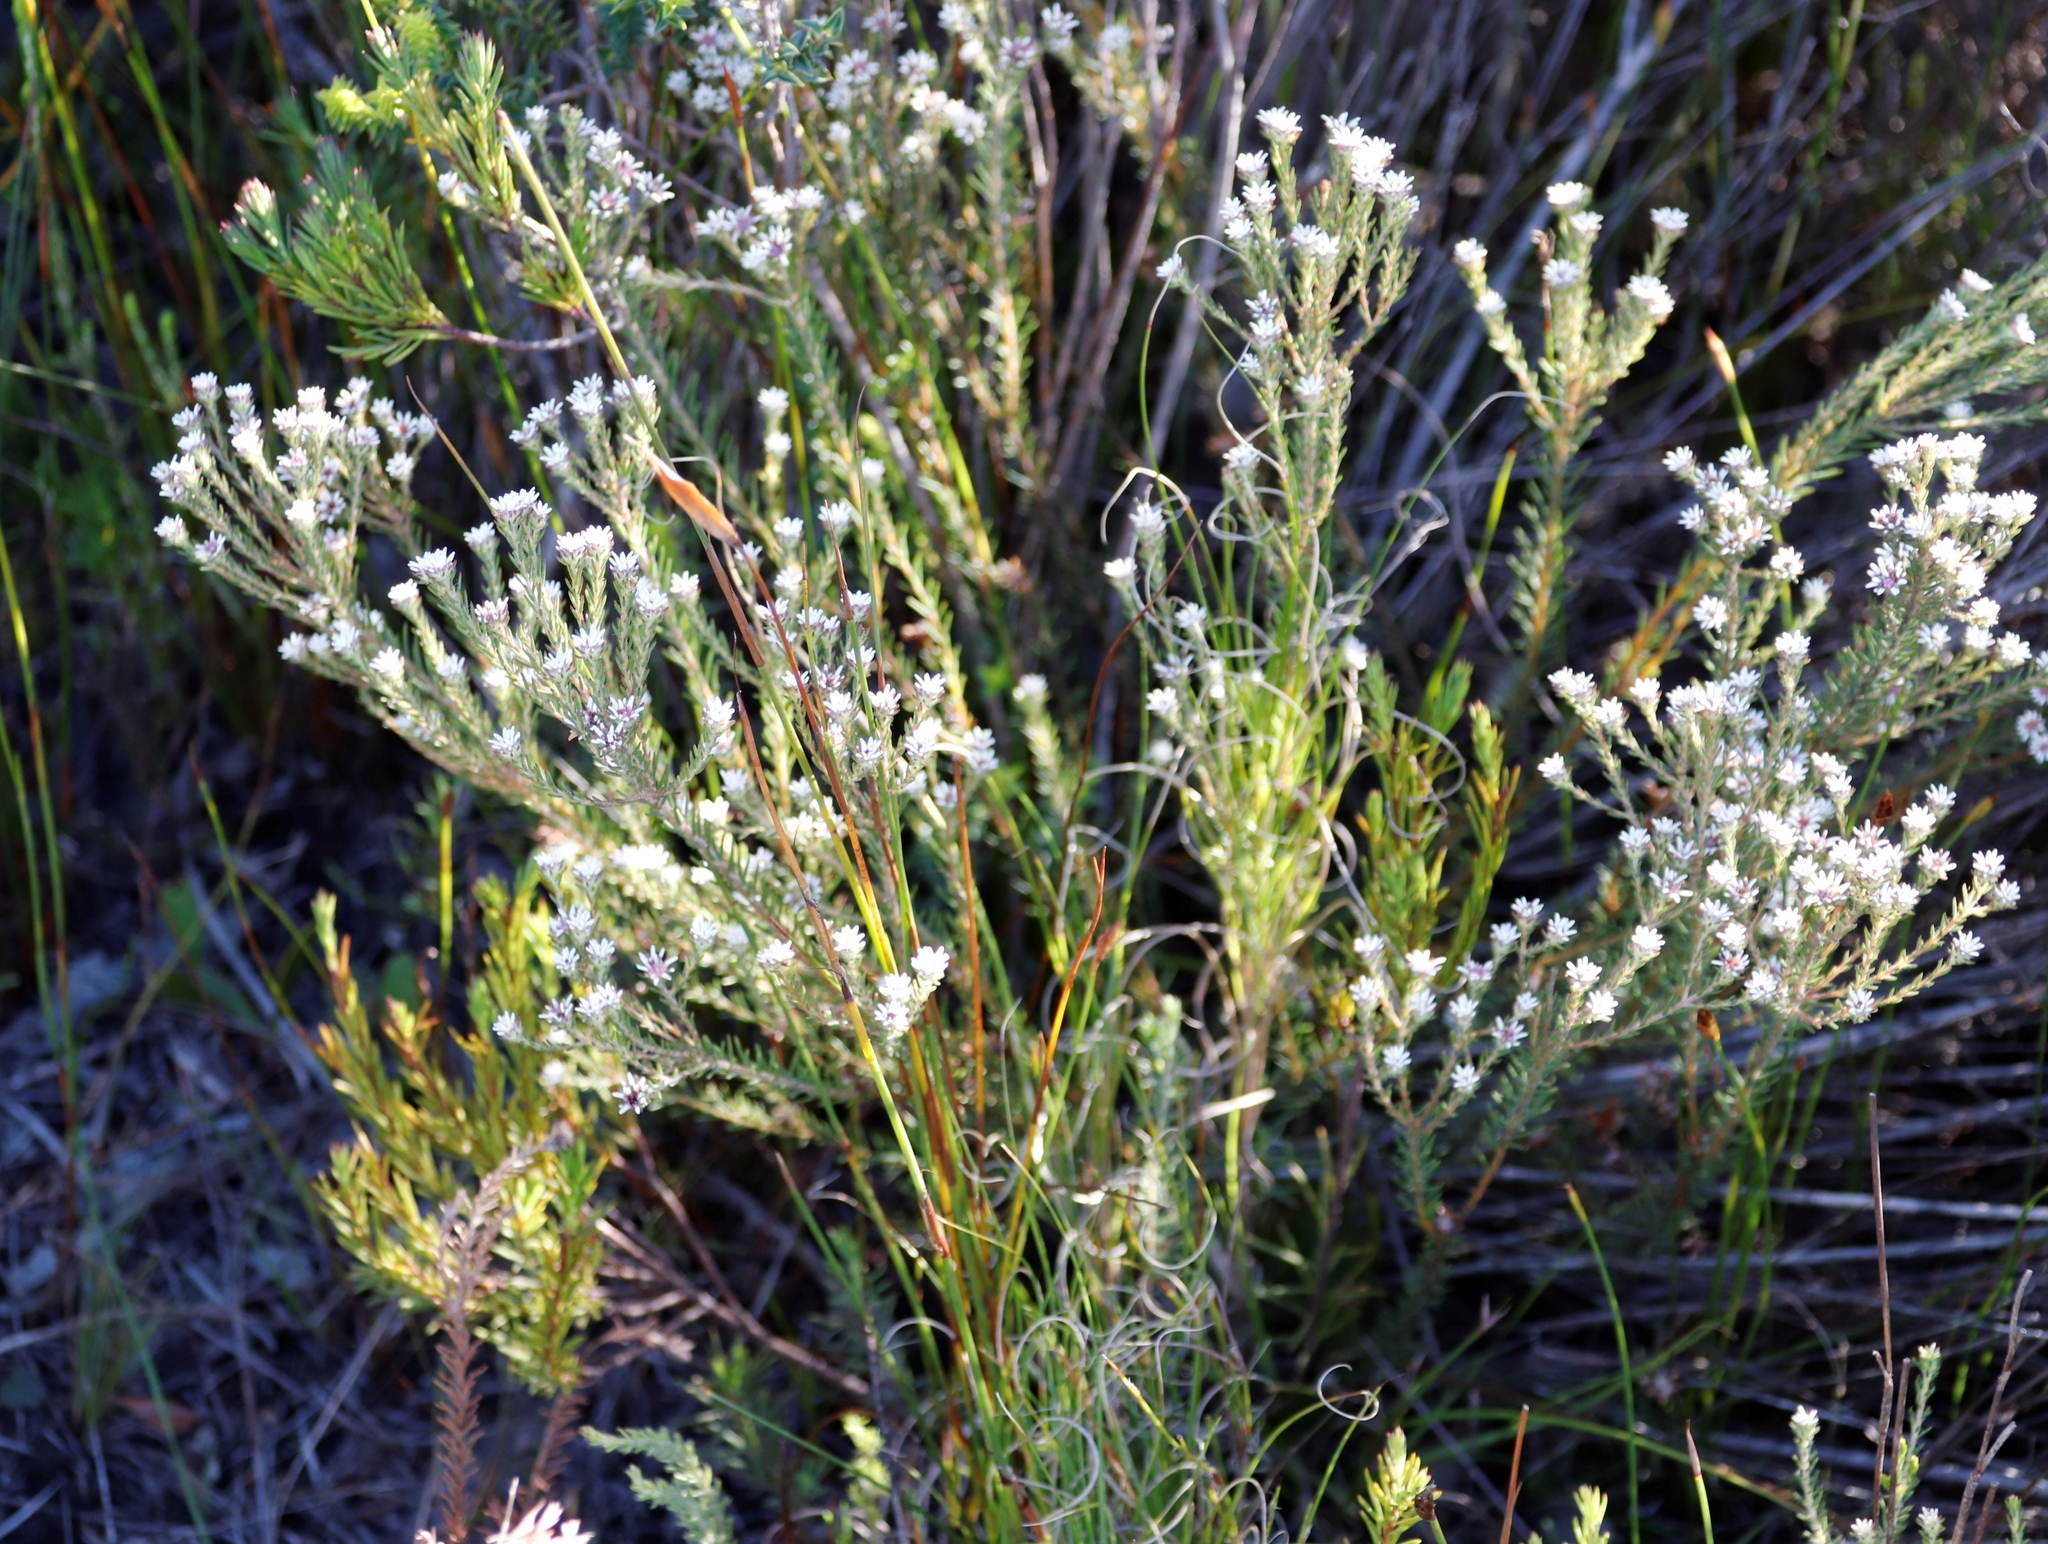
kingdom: Plantae
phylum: Tracheophyta
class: Magnoliopsida
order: Bruniales
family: Bruniaceae
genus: Staavia
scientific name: Staavia radiata
